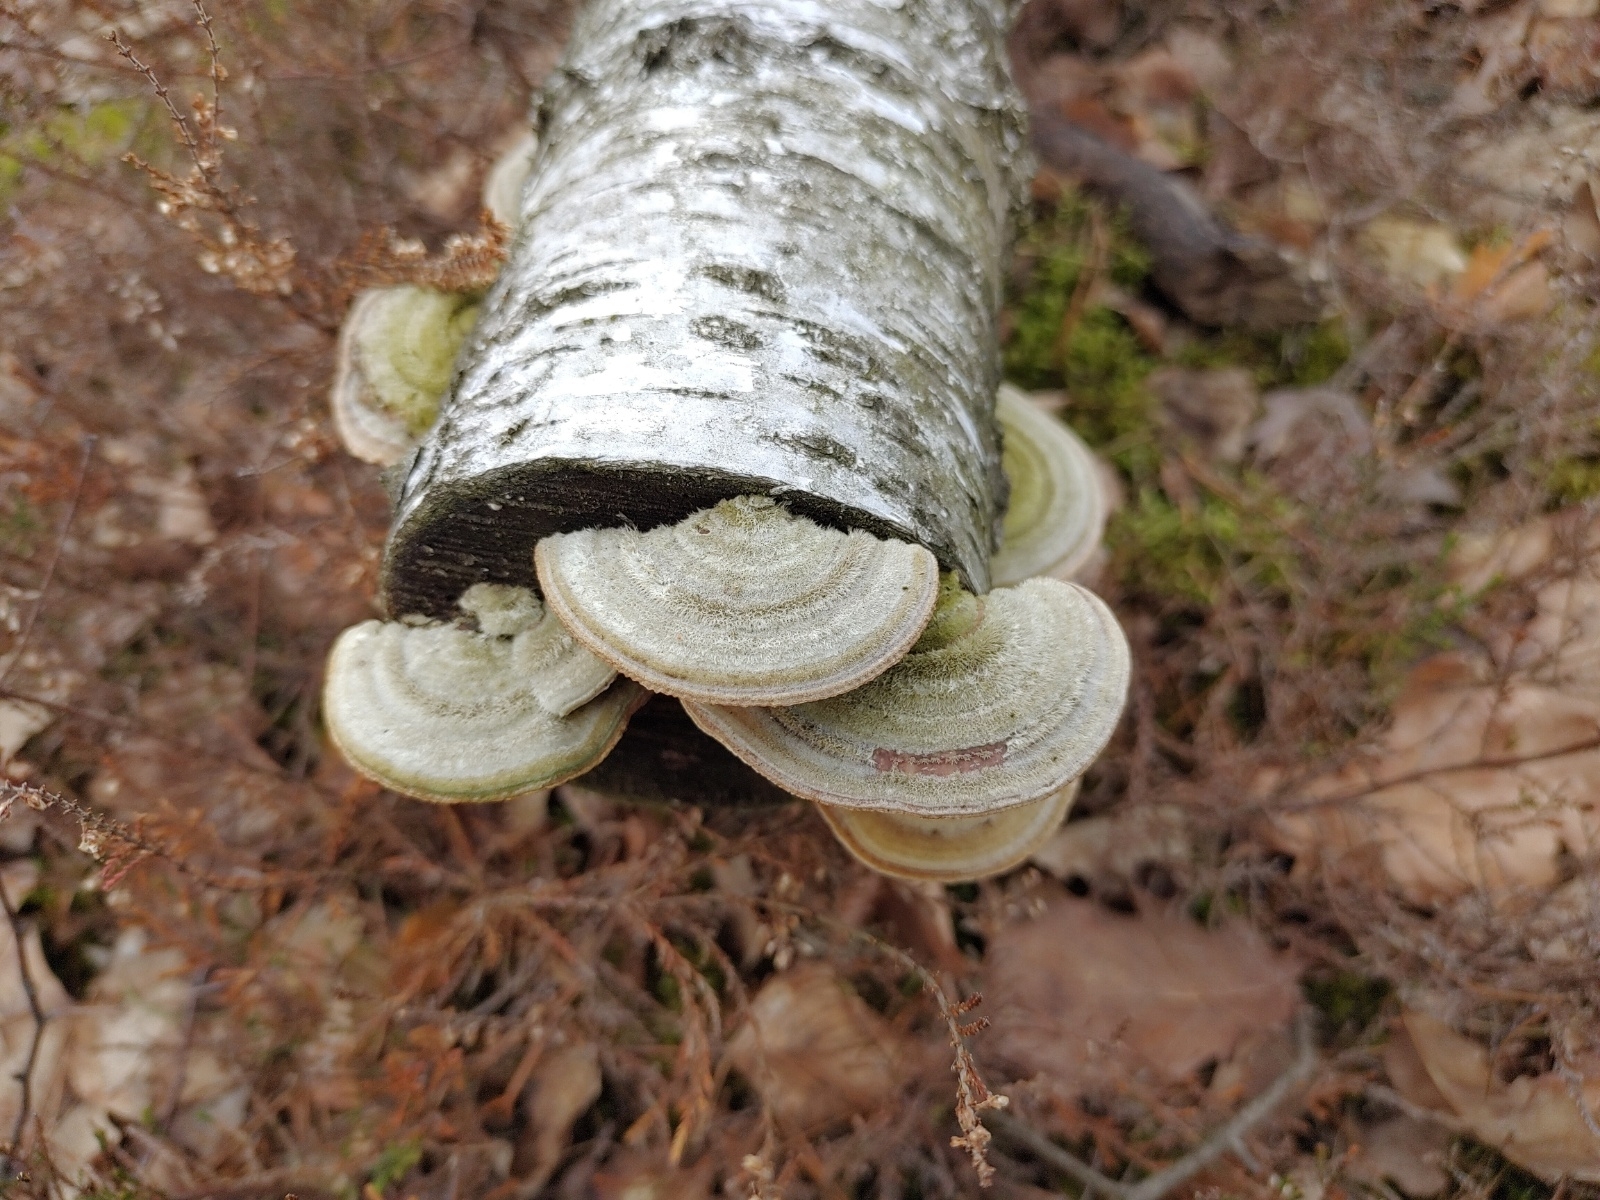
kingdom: Fungi
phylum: Basidiomycota
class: Agaricomycetes
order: Polyporales
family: Polyporaceae
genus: Lenzites
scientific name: Lenzites betulinus
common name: Birch mazegill
